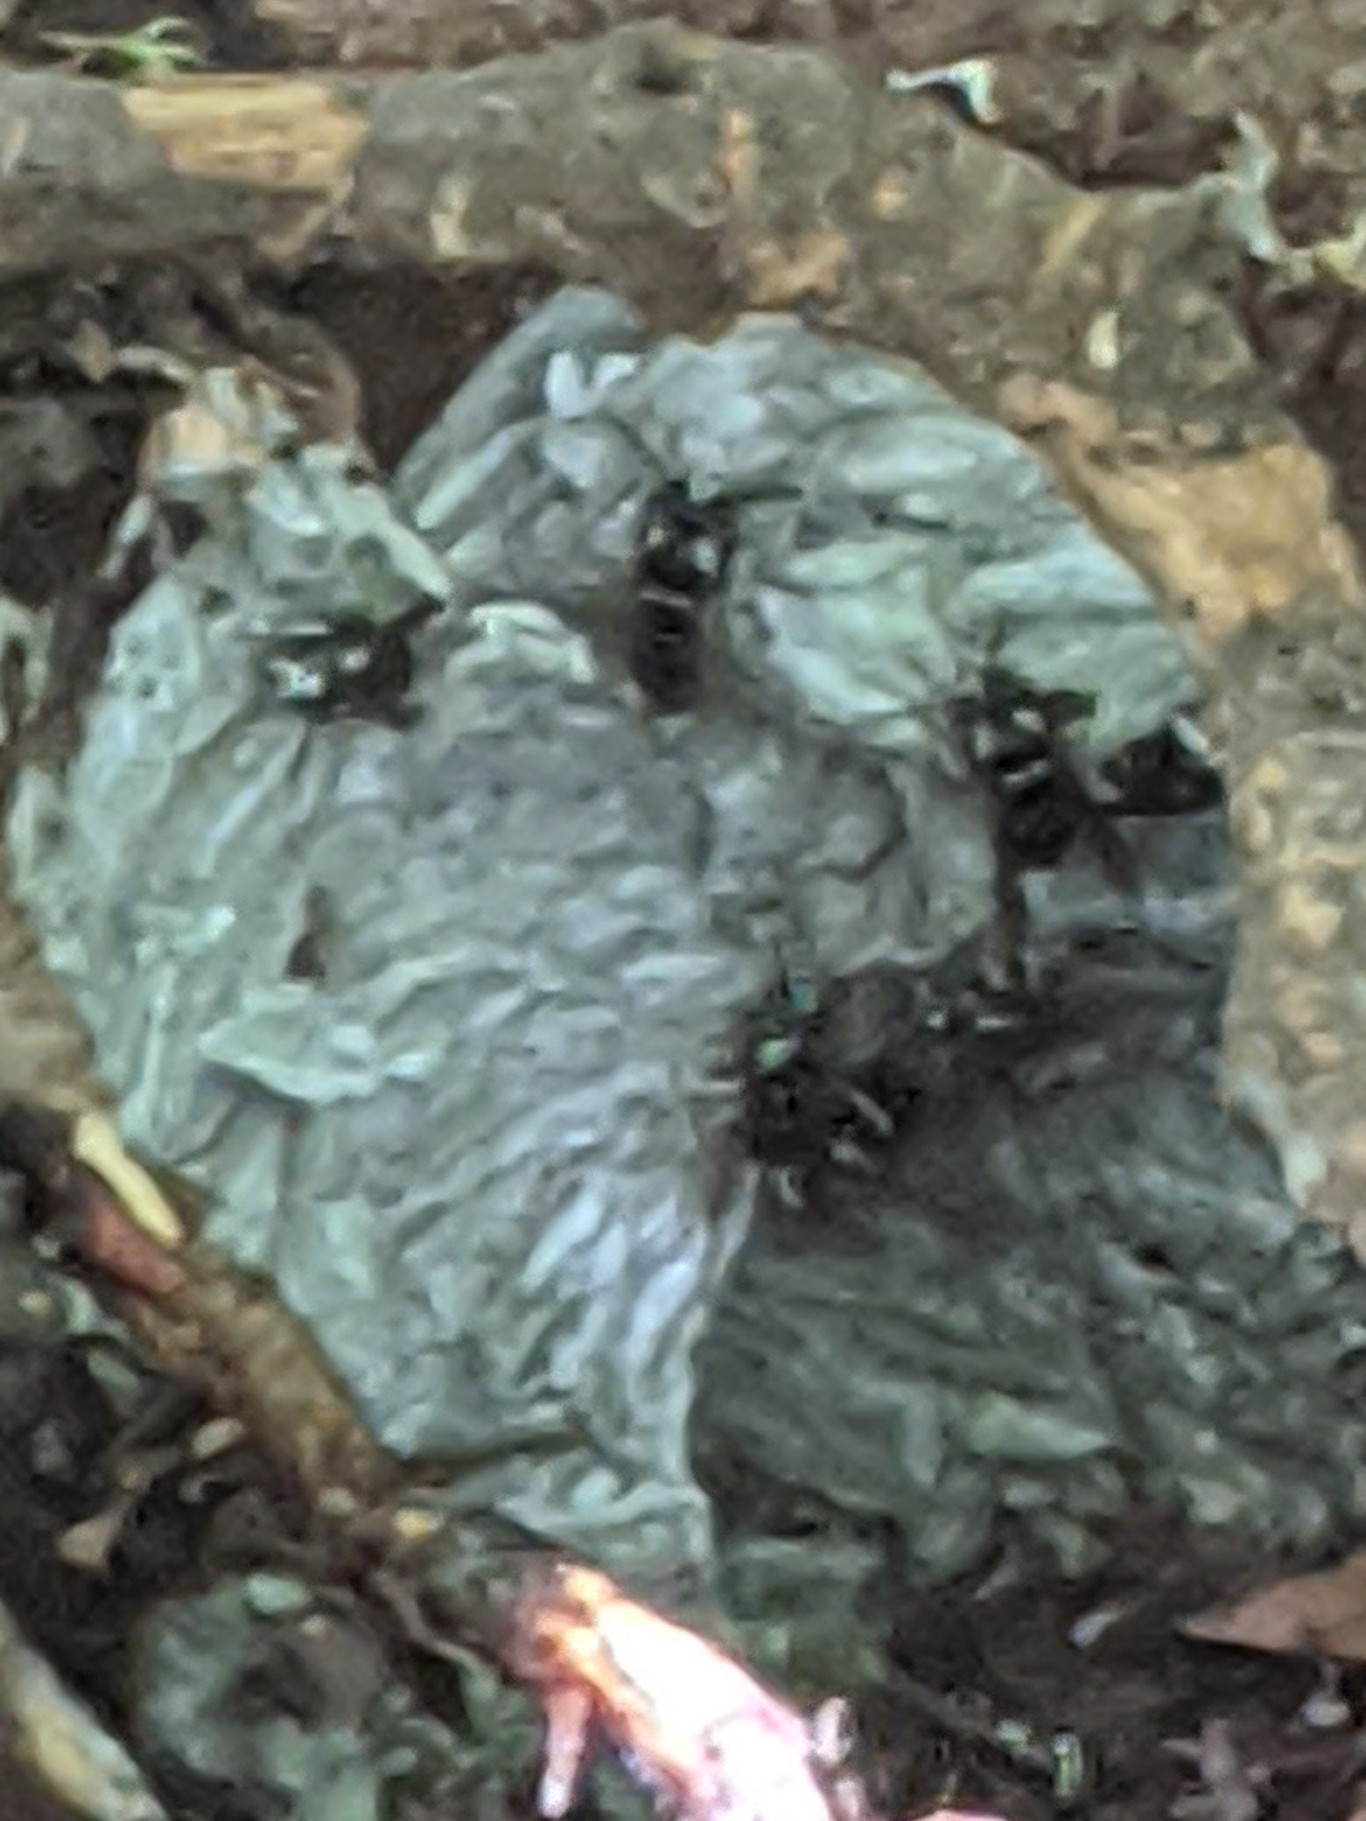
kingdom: Animalia
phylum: Arthropoda
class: Insecta
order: Hymenoptera
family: Vespidae
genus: Vespula
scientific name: Vespula consobrina
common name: Blackjacket
